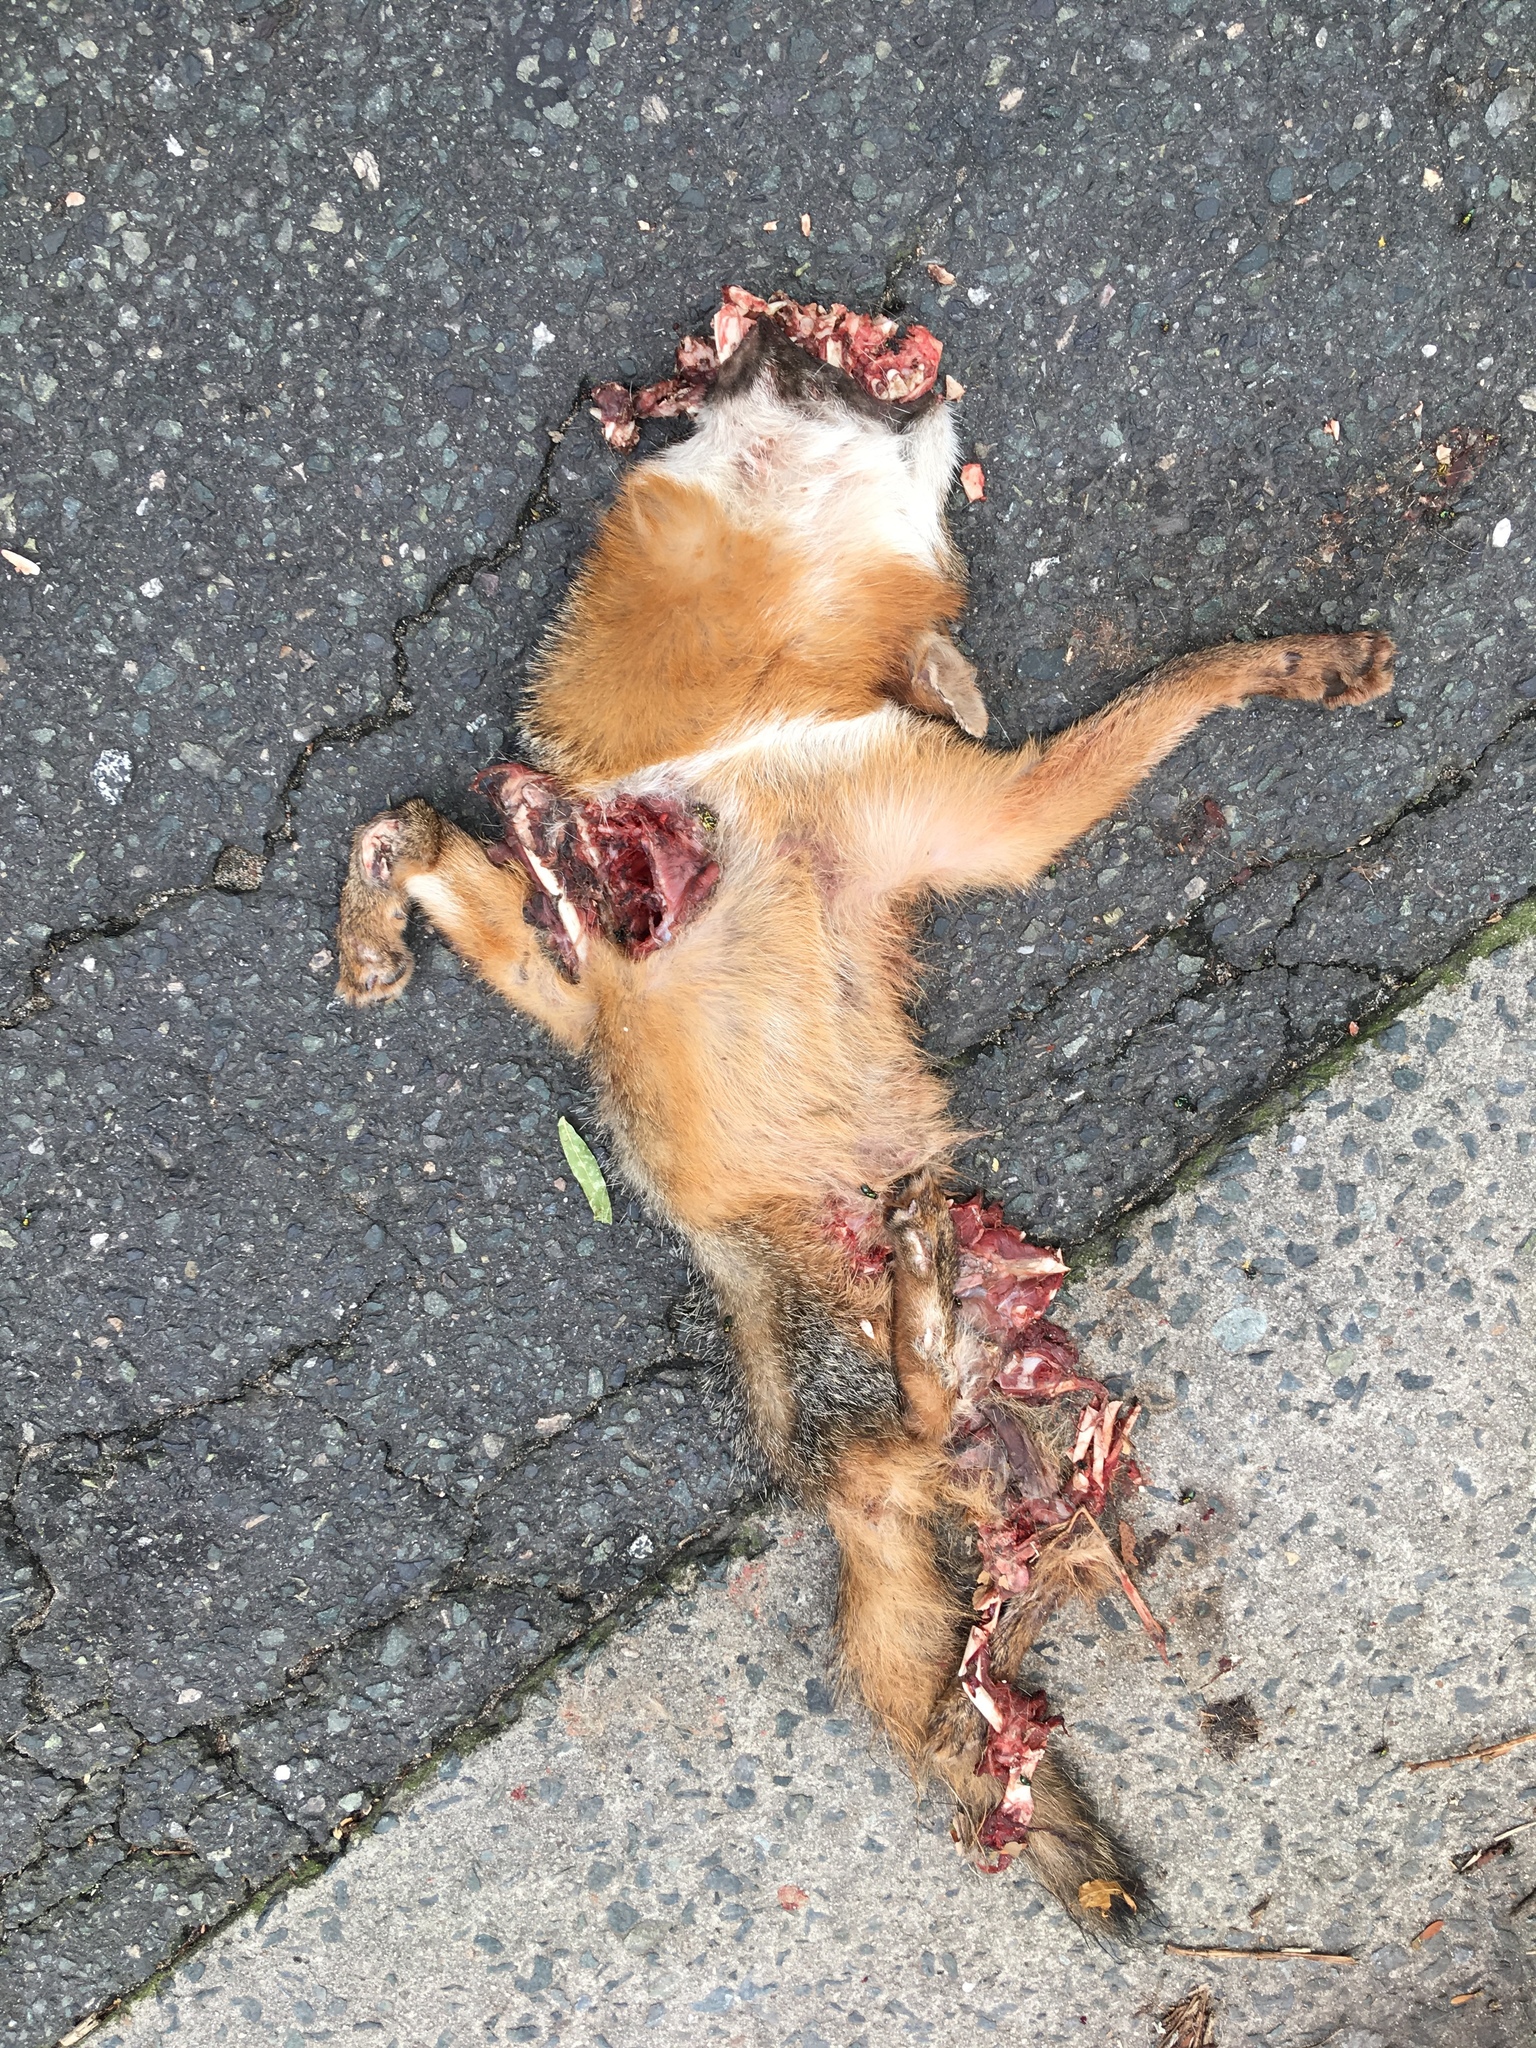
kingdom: Animalia
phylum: Chordata
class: Mammalia
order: Carnivora
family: Canidae
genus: Vulpes
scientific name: Vulpes vulpes
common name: Red fox
